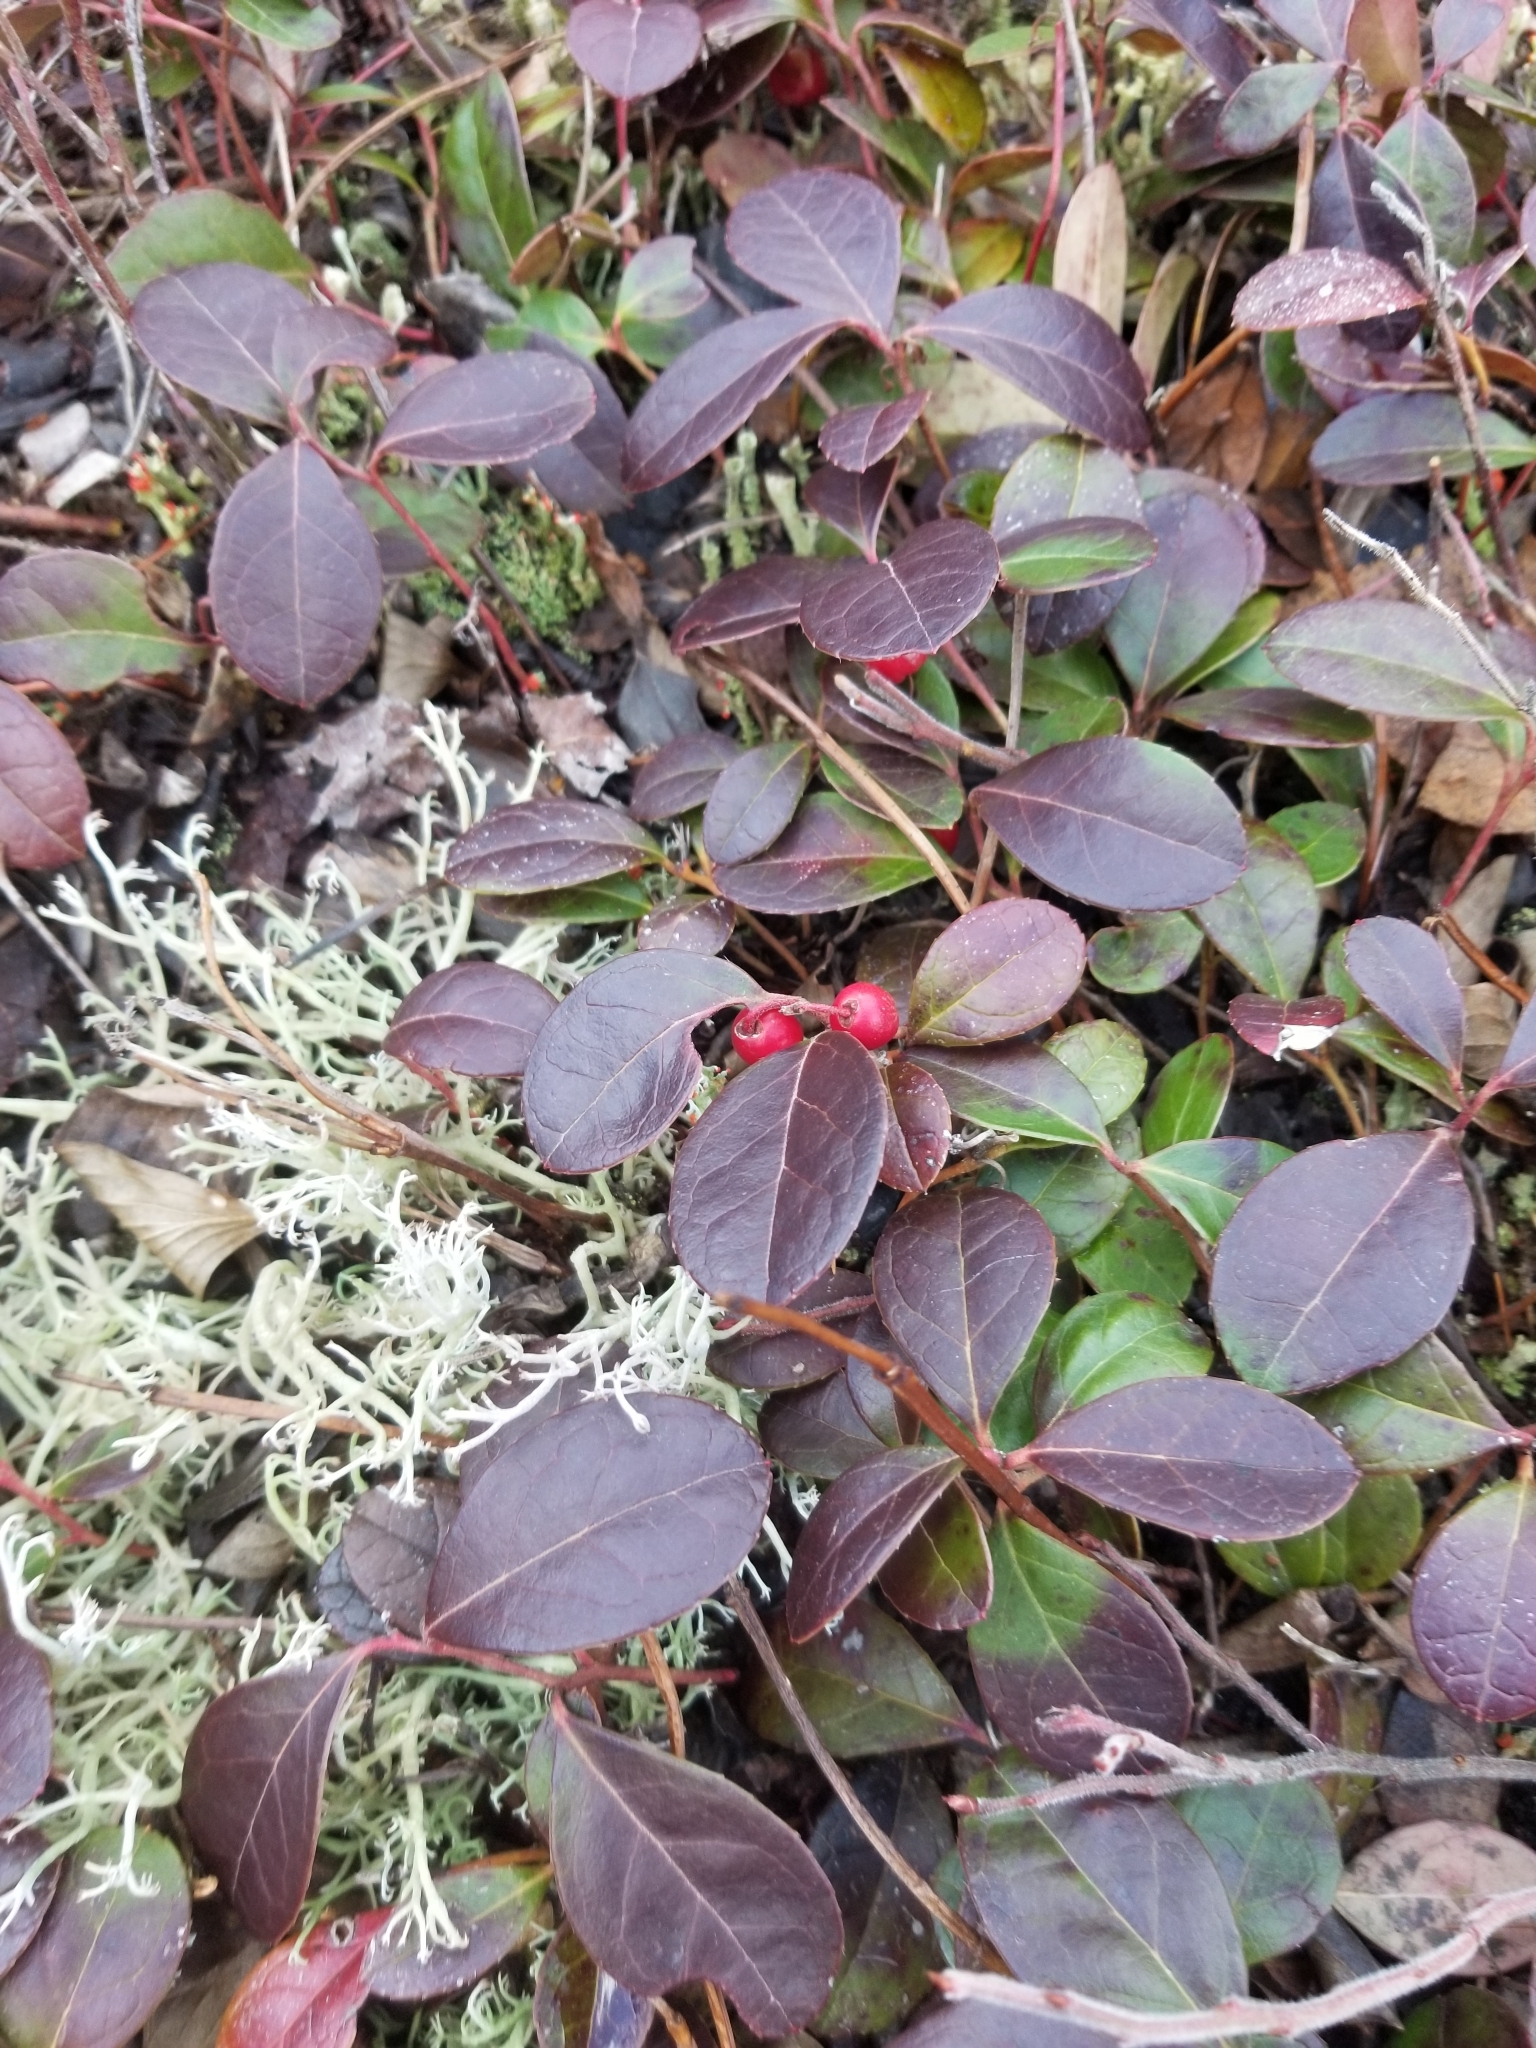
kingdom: Plantae
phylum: Tracheophyta
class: Magnoliopsida
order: Ericales
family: Ericaceae
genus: Gaultheria
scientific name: Gaultheria procumbens
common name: Checkerberry
